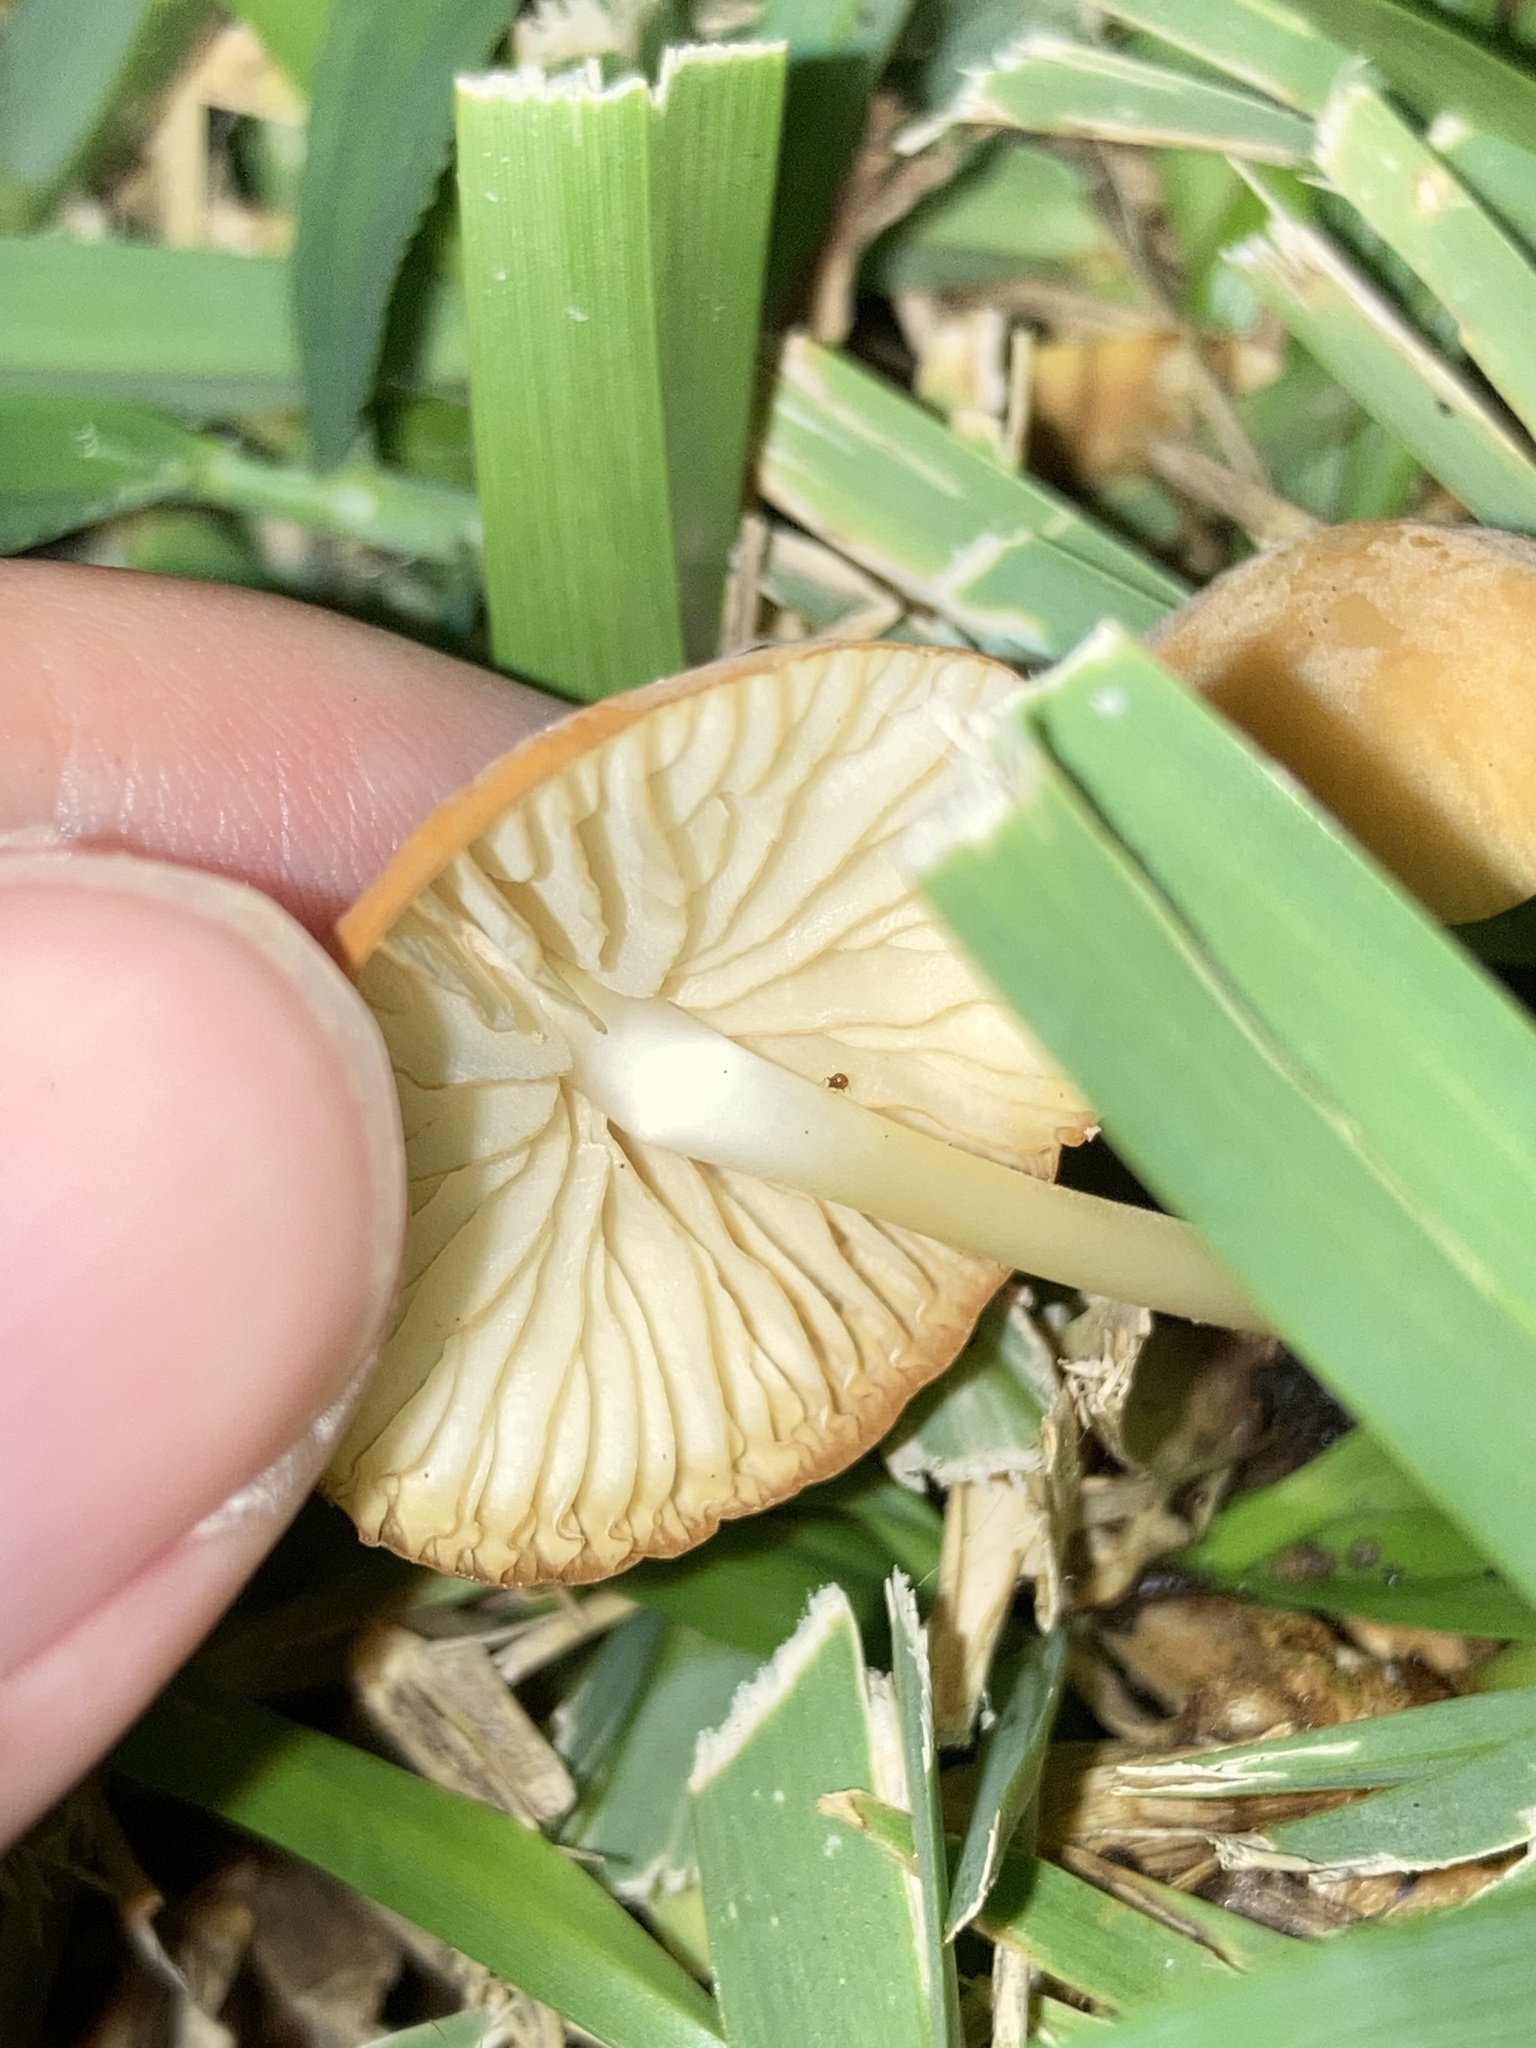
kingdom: Fungi
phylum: Basidiomycota
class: Agaricomycetes
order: Agaricales
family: Marasmiaceae
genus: Marasmius
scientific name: Marasmius vagus
